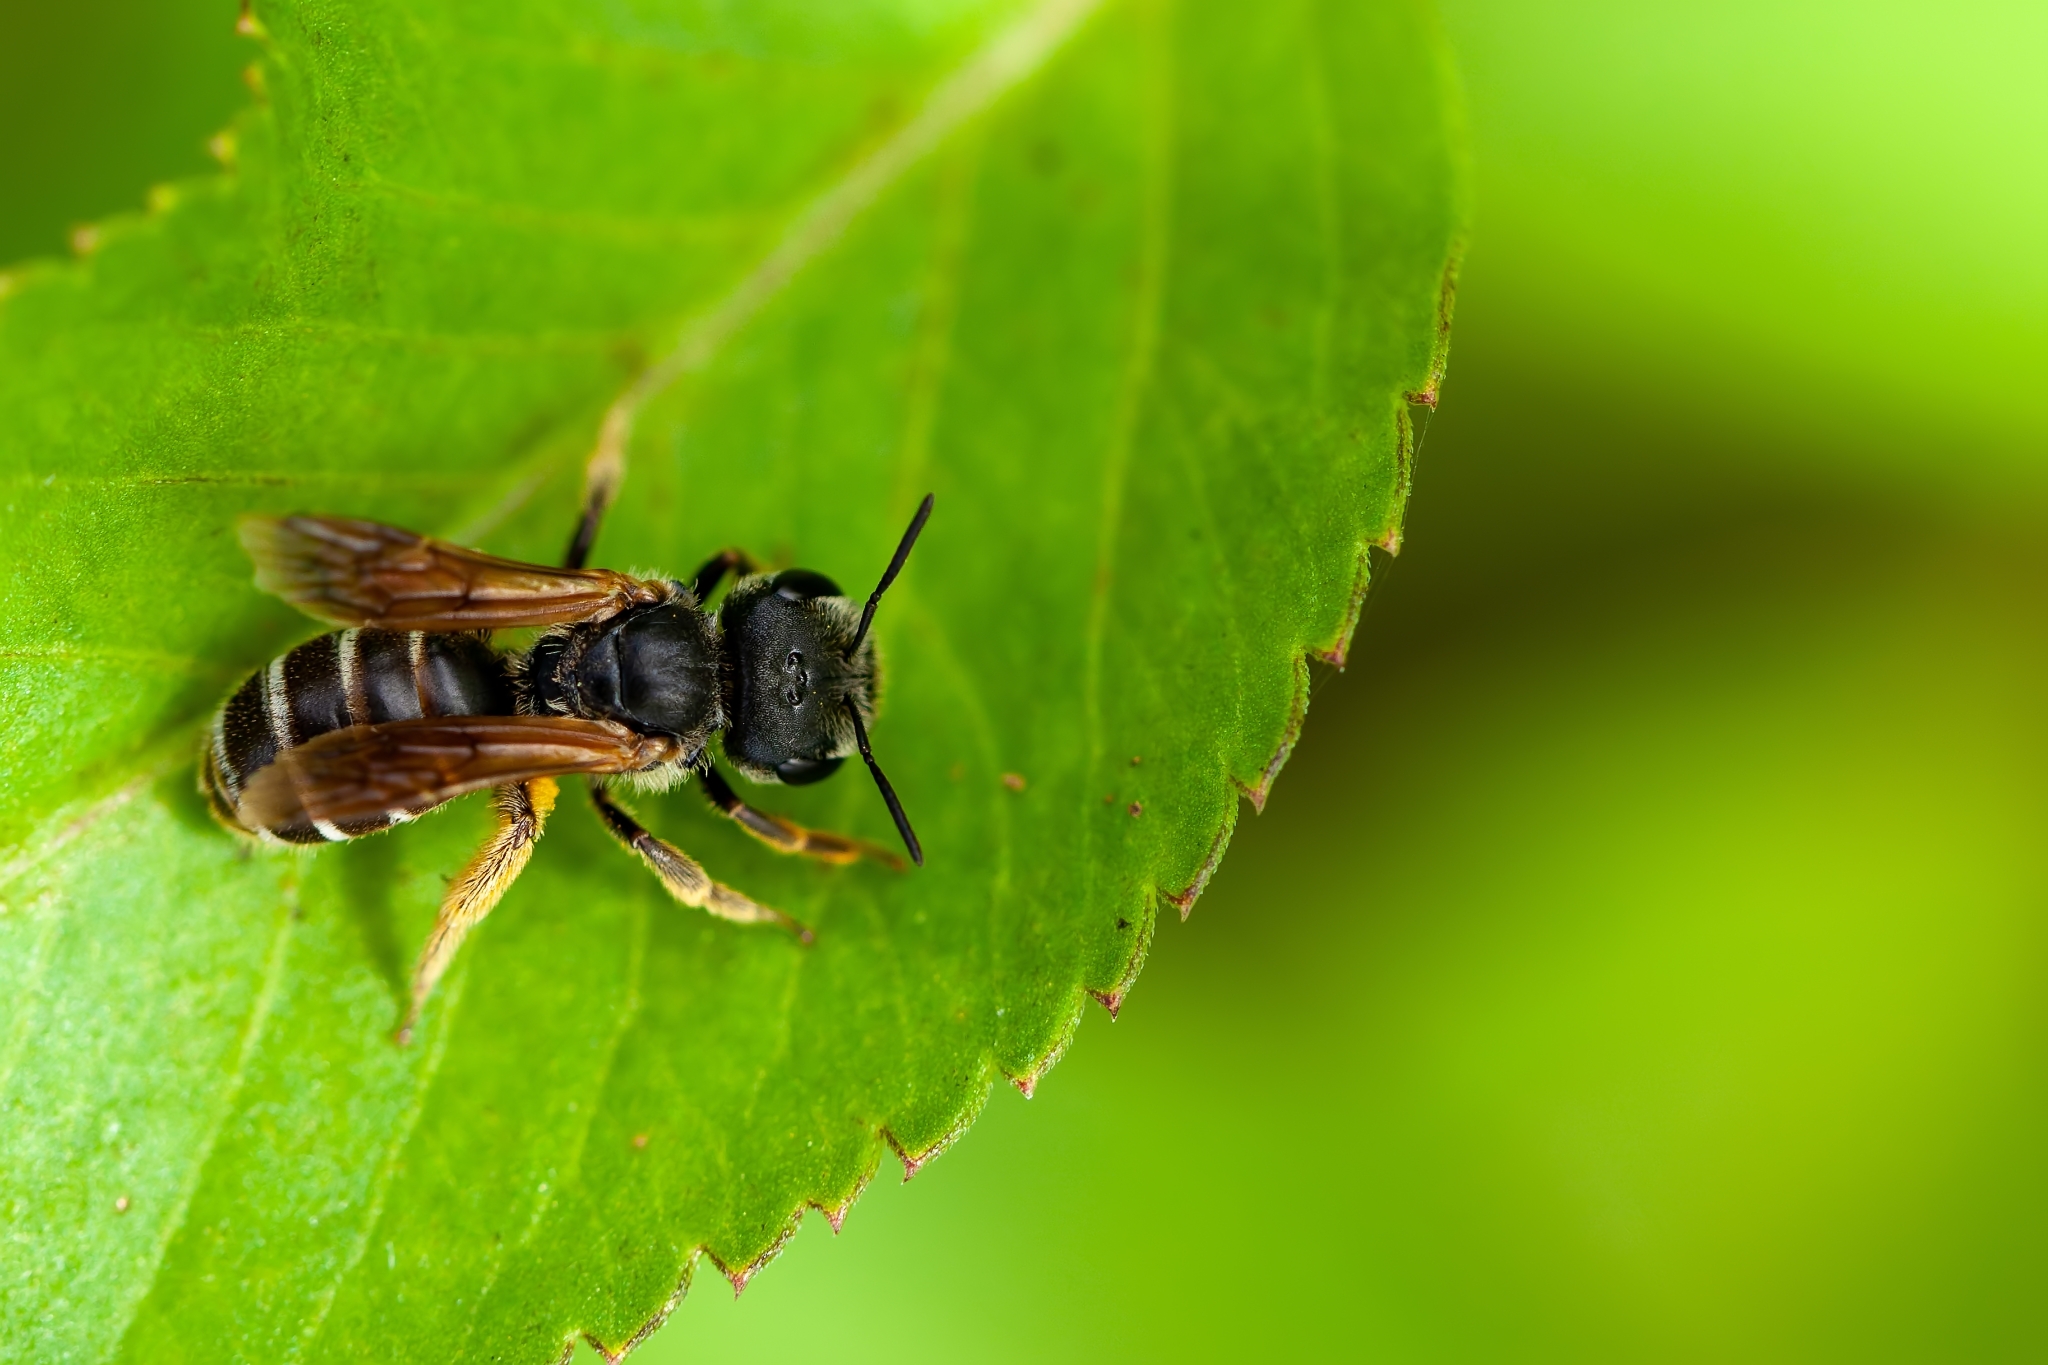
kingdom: Animalia
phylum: Arthropoda
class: Insecta
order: Hymenoptera
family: Halictidae
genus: Halictus
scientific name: Halictus poeyi
